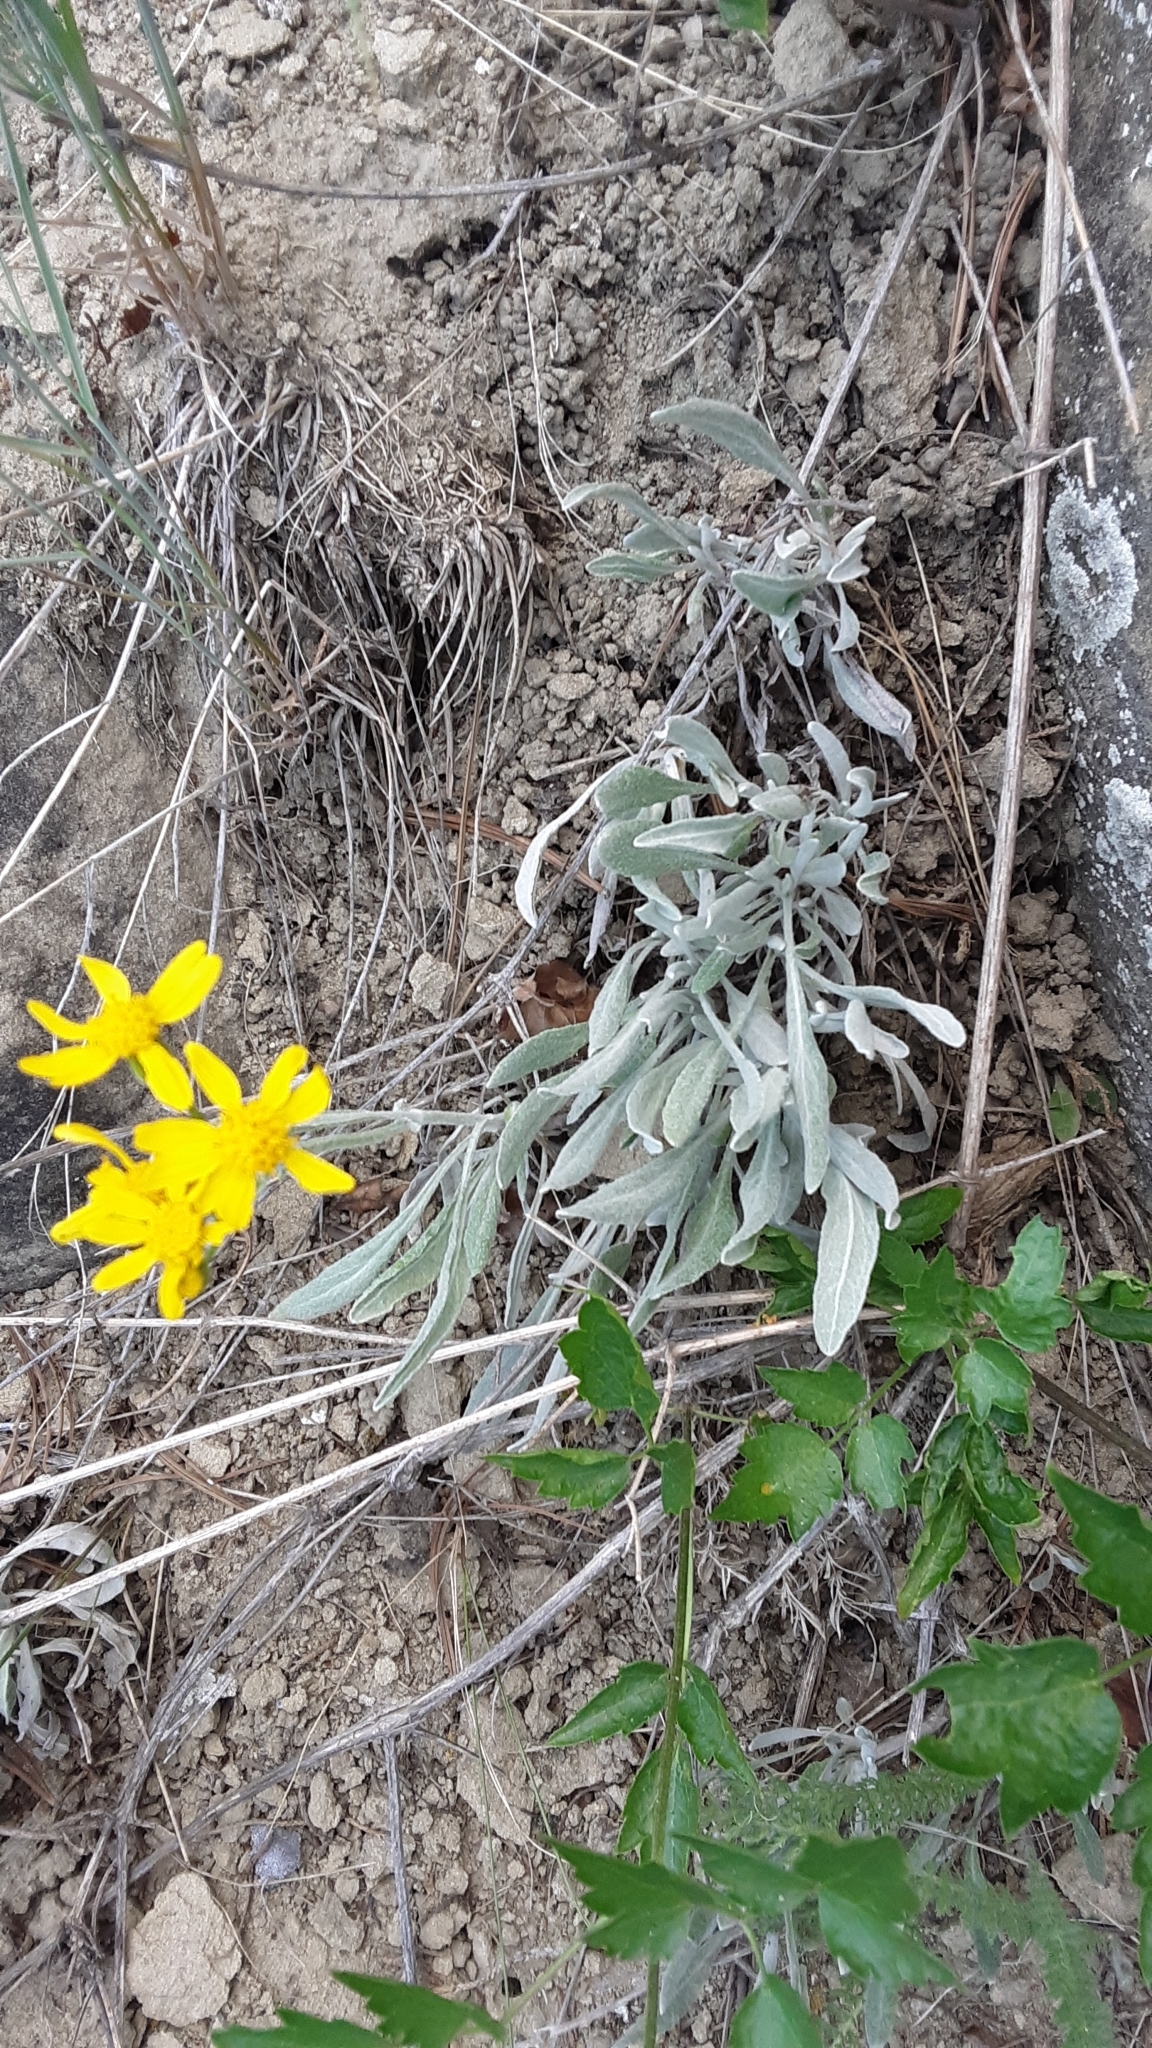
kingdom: Plantae
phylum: Tracheophyta
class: Magnoliopsida
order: Asterales
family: Asteraceae
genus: Packera
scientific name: Packera cana
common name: Woolly groundsel
